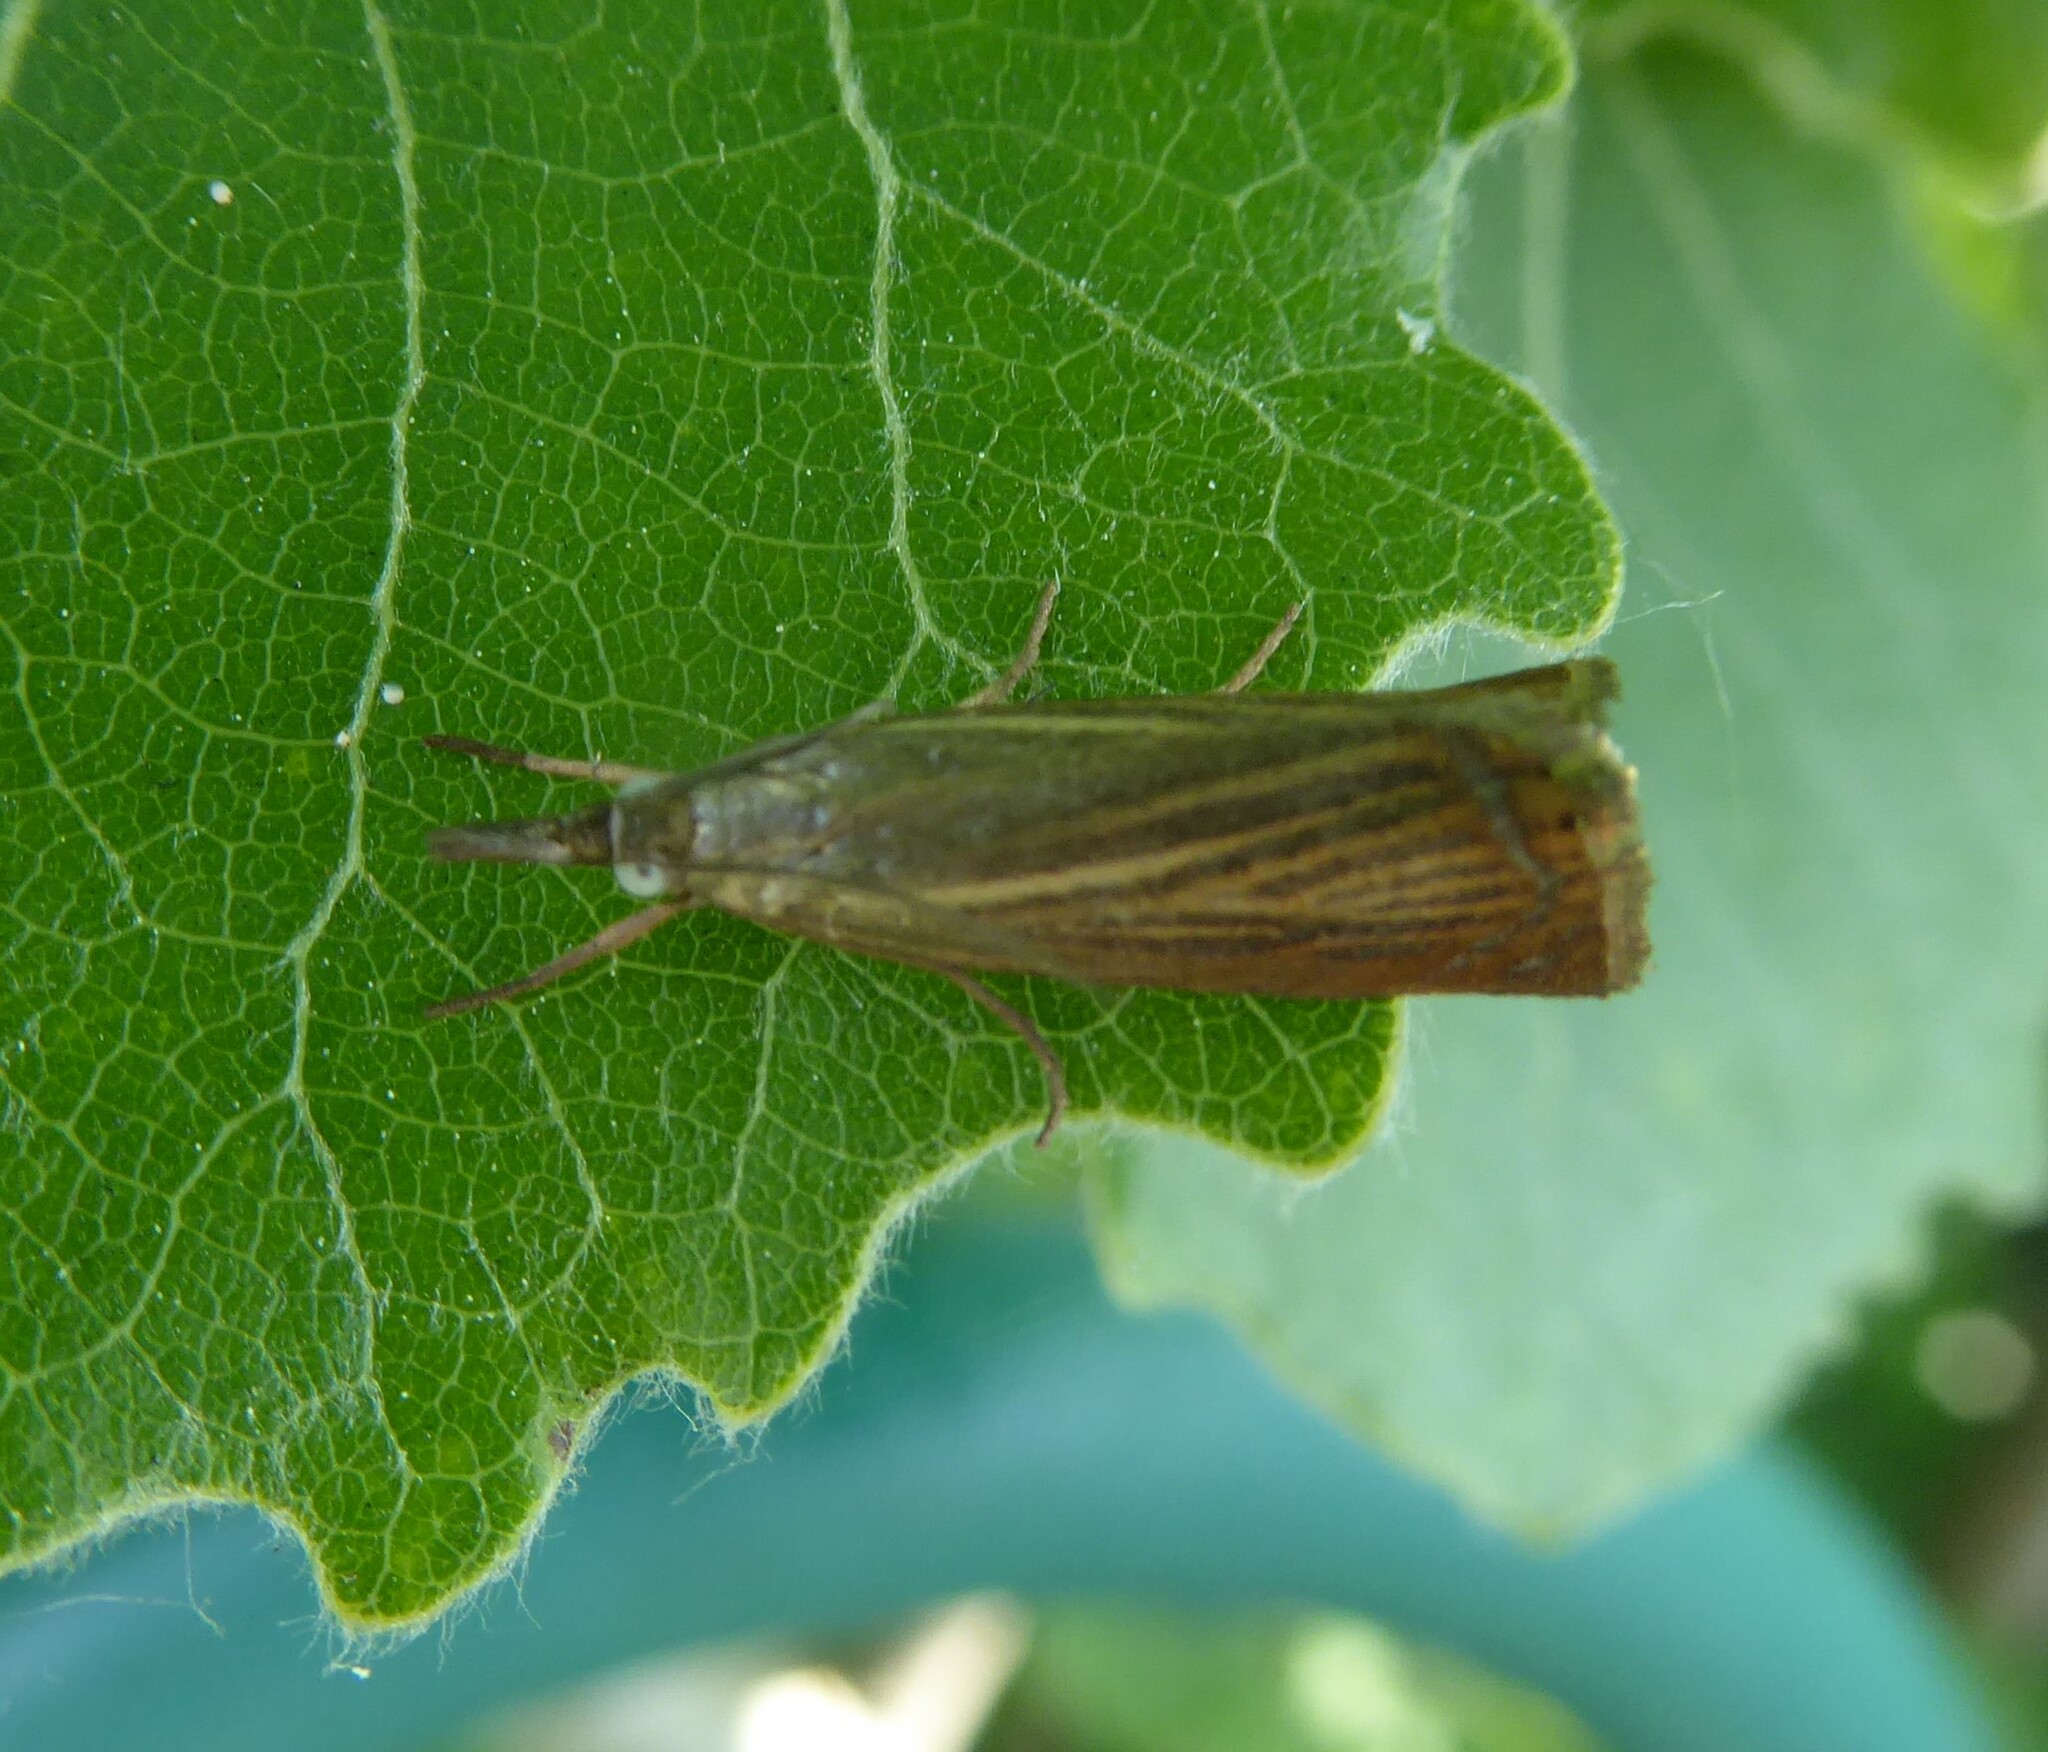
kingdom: Animalia
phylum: Arthropoda
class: Insecta
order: Lepidoptera
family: Crambidae
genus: Chrysoteuchia
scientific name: Chrysoteuchia culmella
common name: Garden grass-veneer
